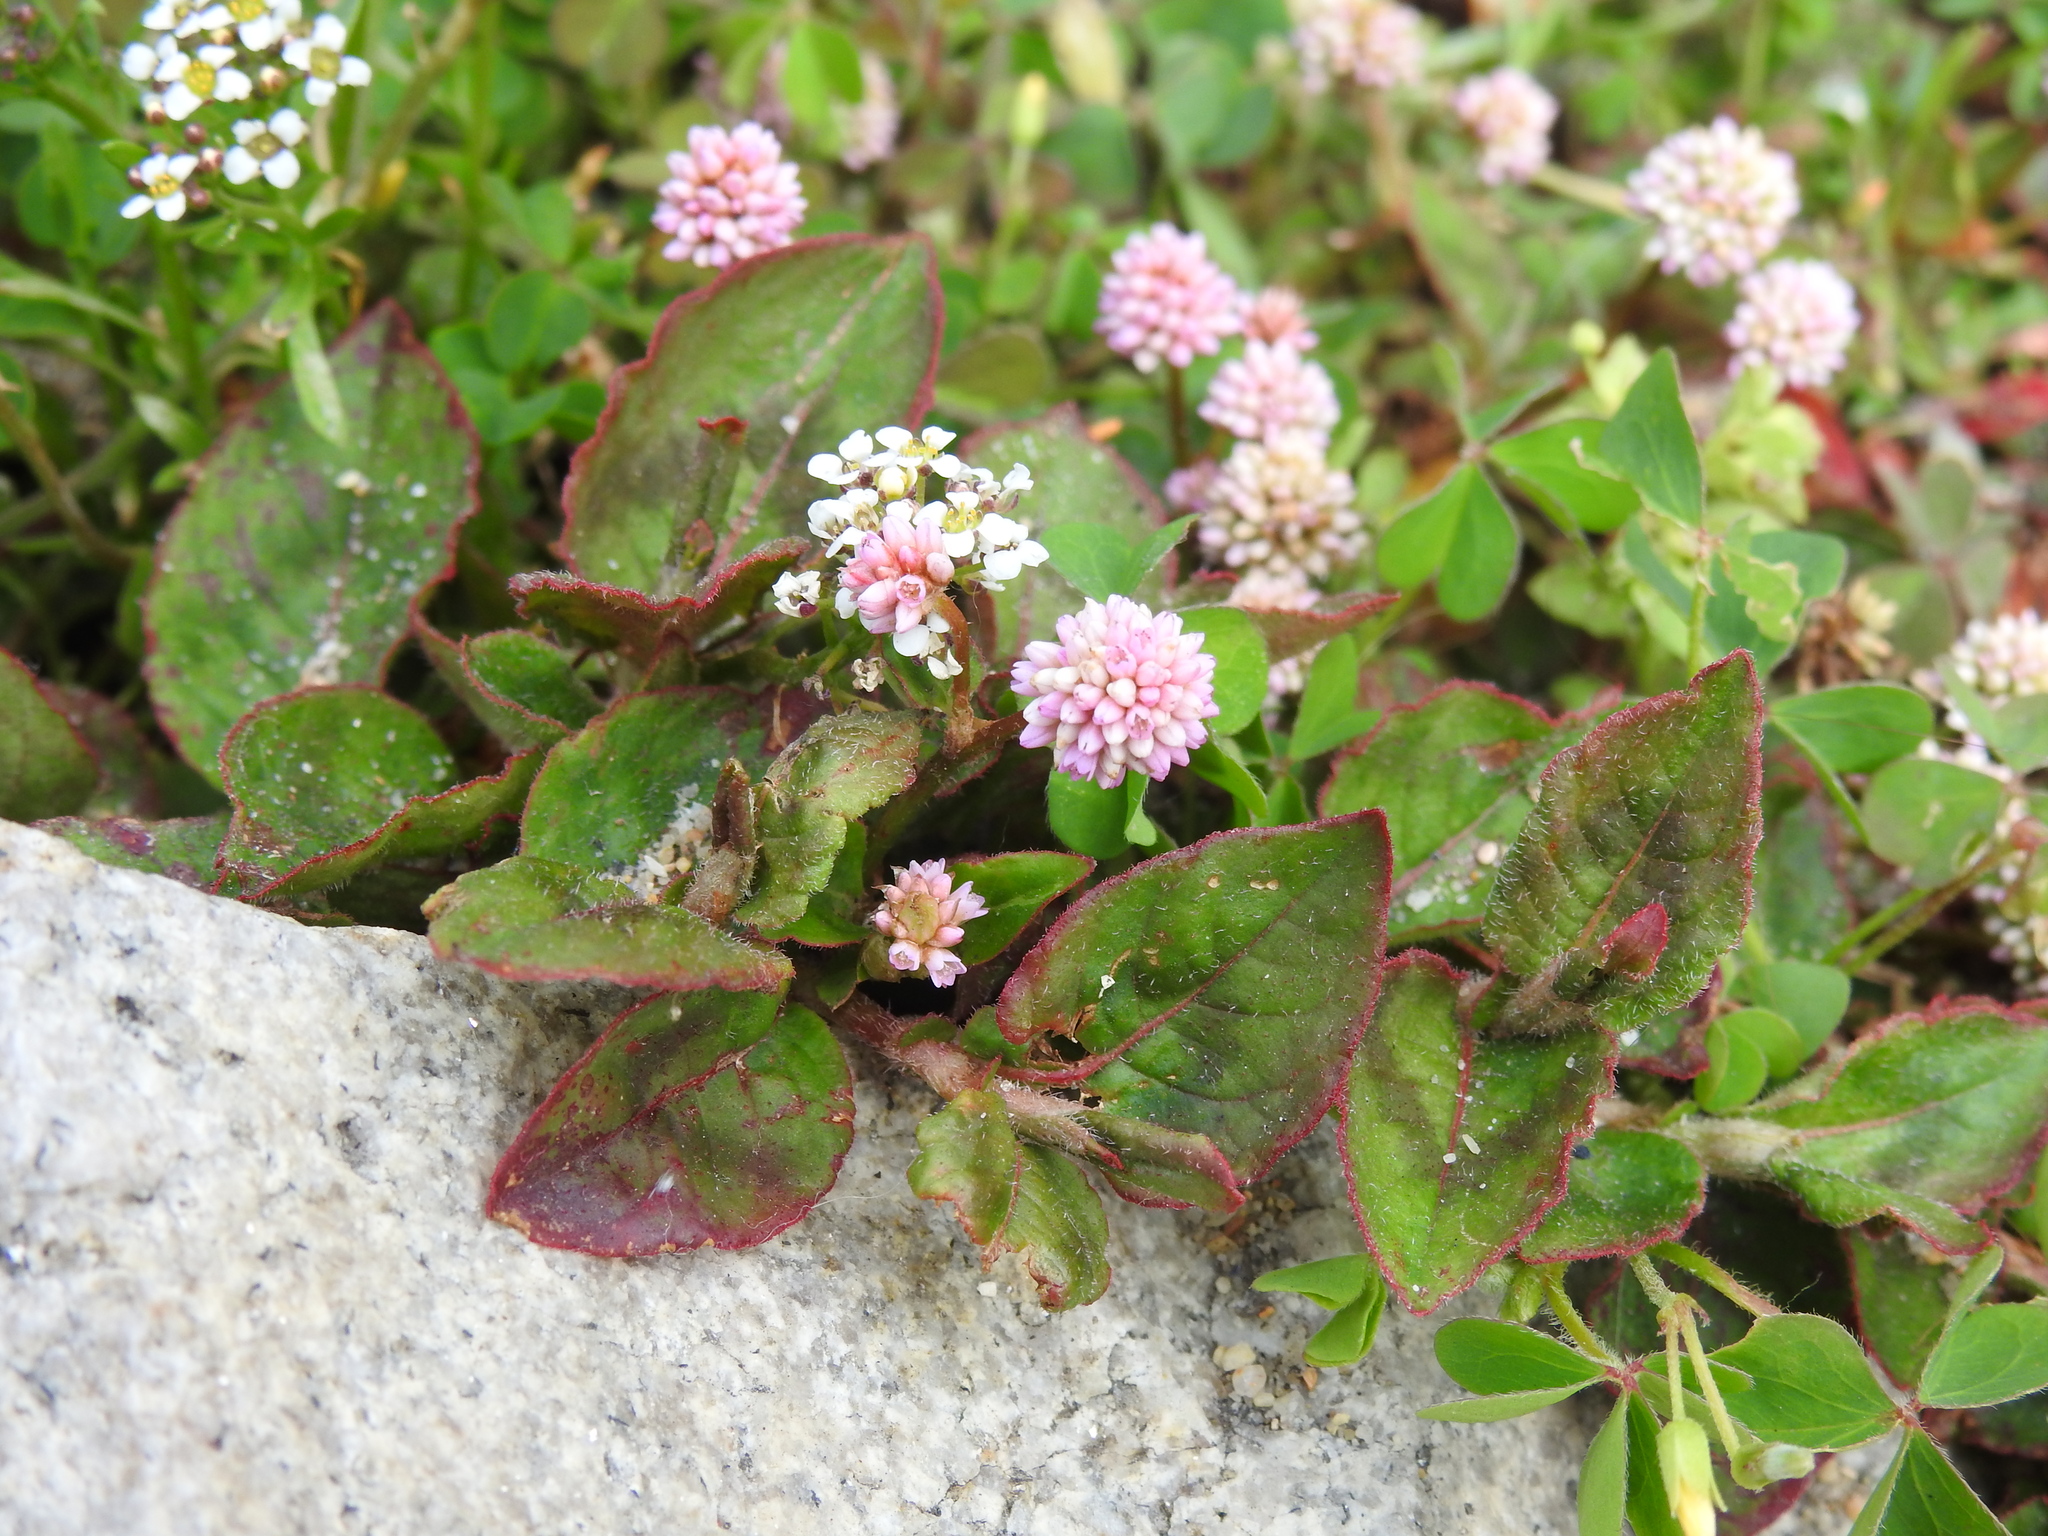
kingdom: Plantae
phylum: Tracheophyta
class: Magnoliopsida
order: Caryophyllales
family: Polygonaceae
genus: Persicaria
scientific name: Persicaria capitata
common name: Pinkhead smartweed
